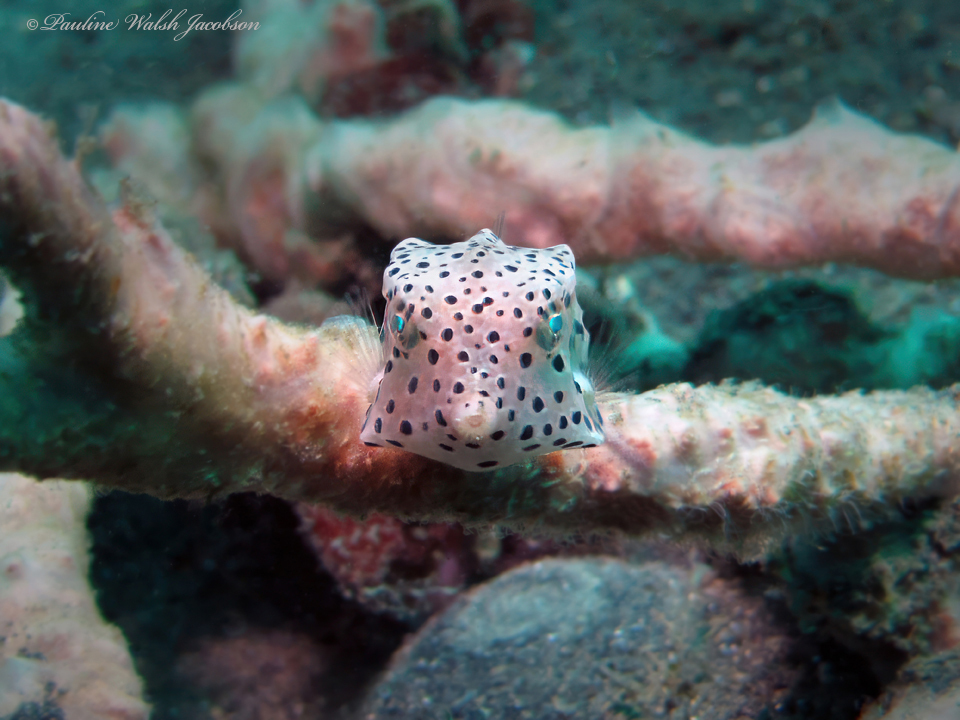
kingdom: Animalia
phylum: Chordata
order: Tetraodontiformes
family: Ostraciidae
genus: Rhynchostracion
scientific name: Rhynchostracion nasus
